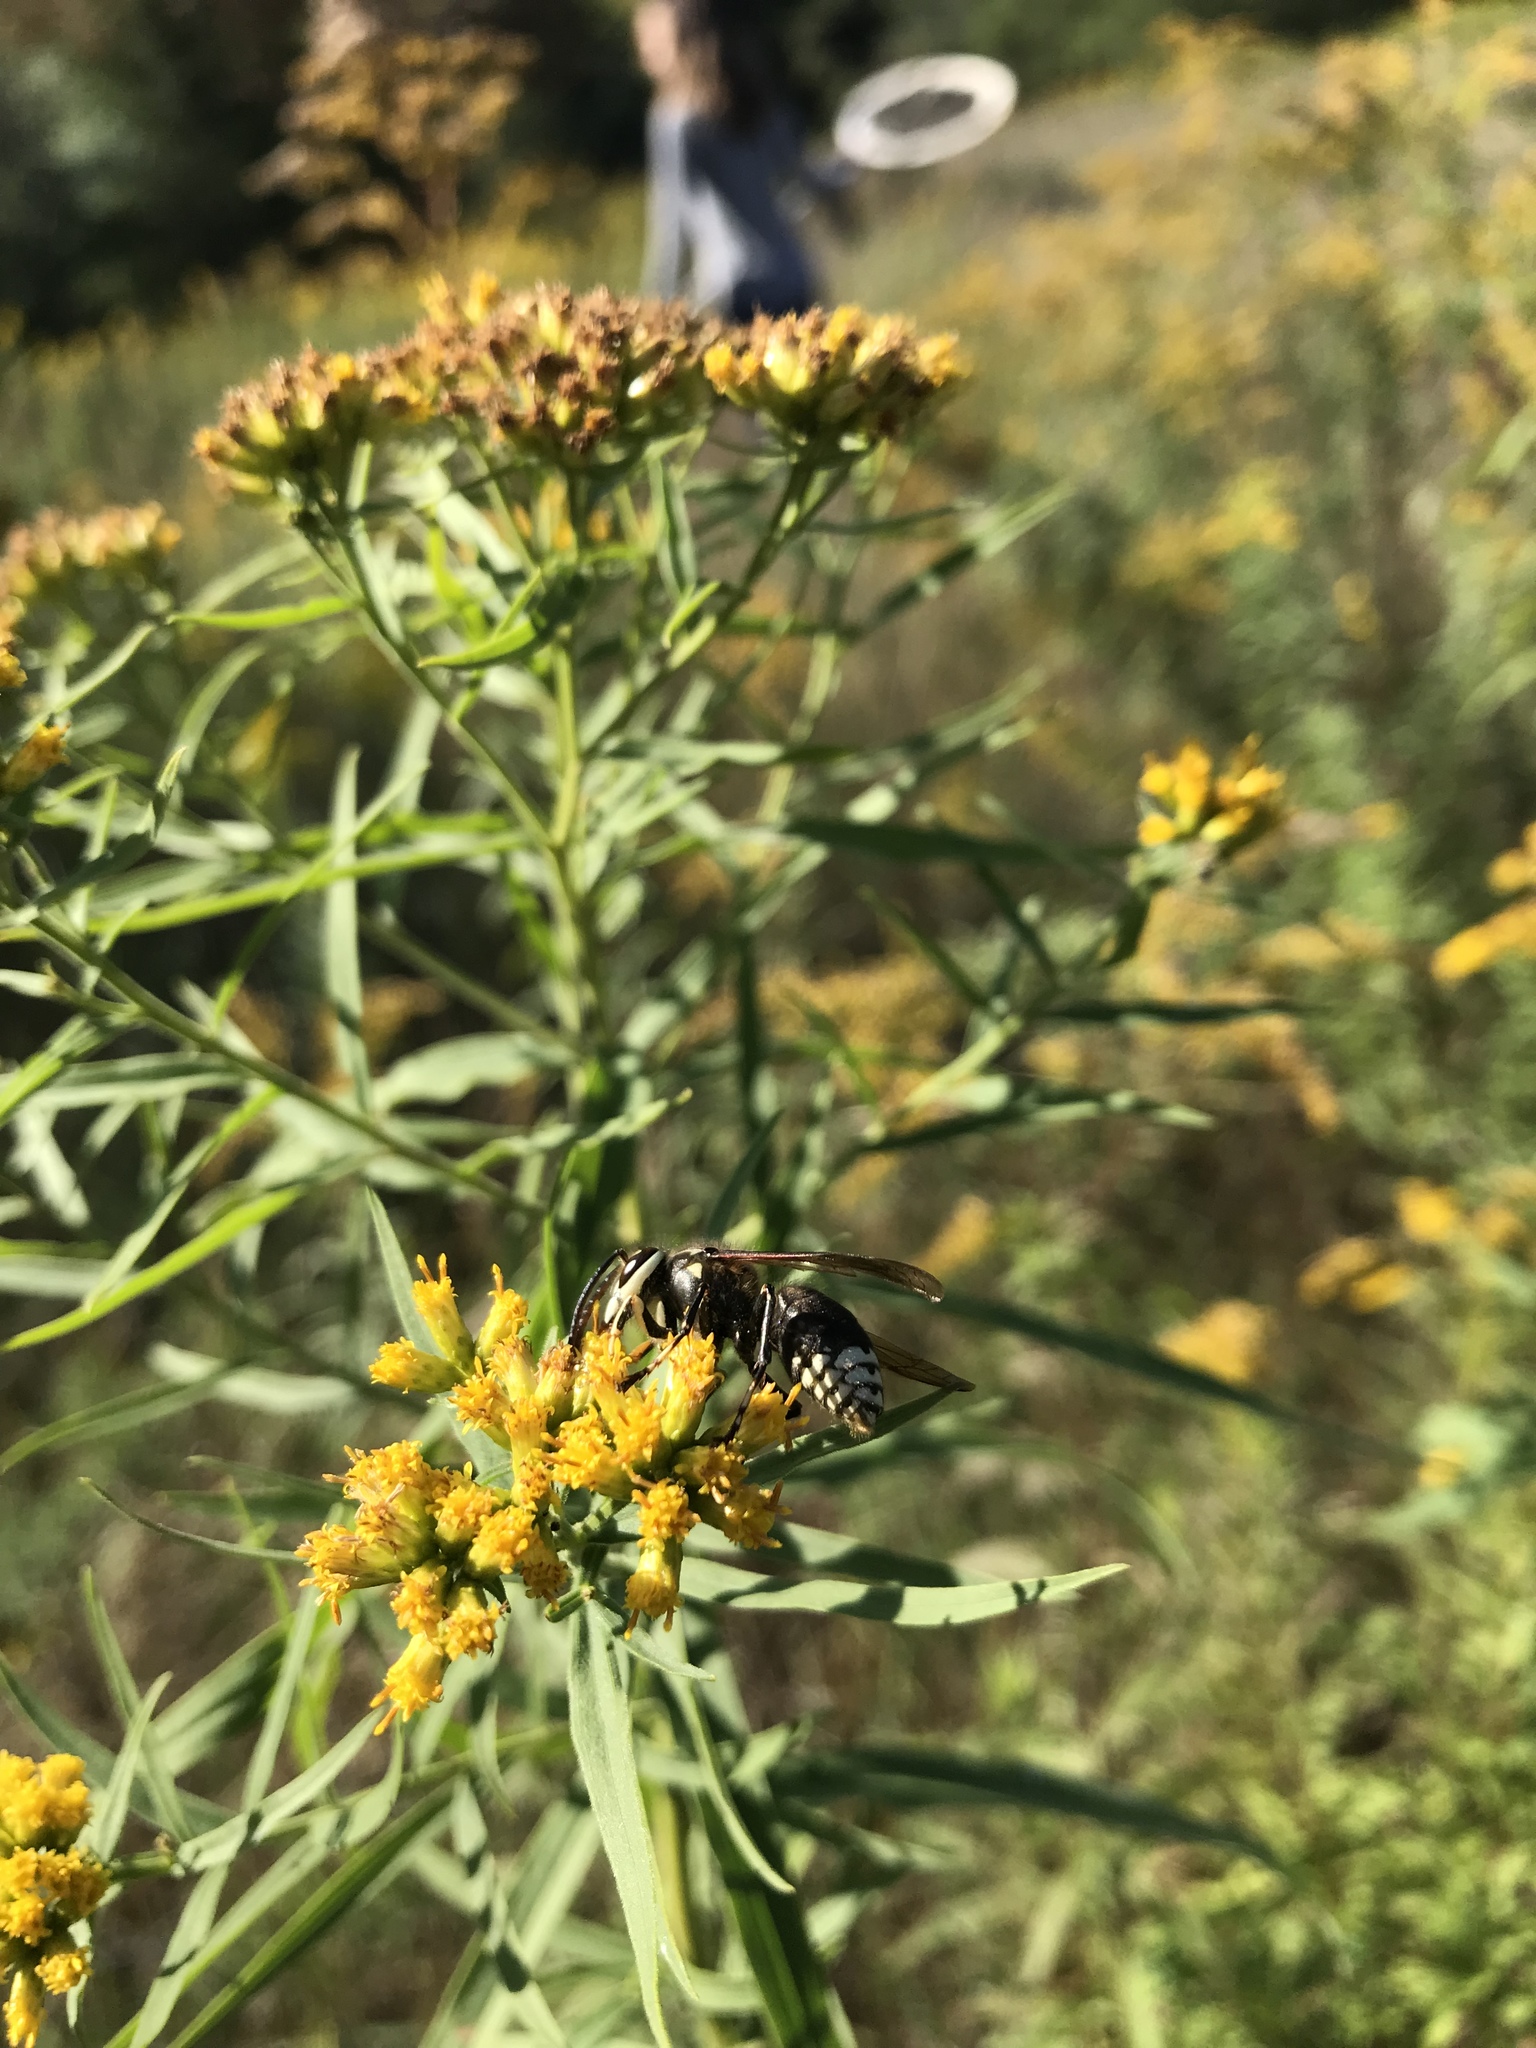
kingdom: Plantae
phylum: Tracheophyta
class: Magnoliopsida
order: Asterales
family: Asteraceae
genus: Euthamia
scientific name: Euthamia graminifolia
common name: Common goldentop
